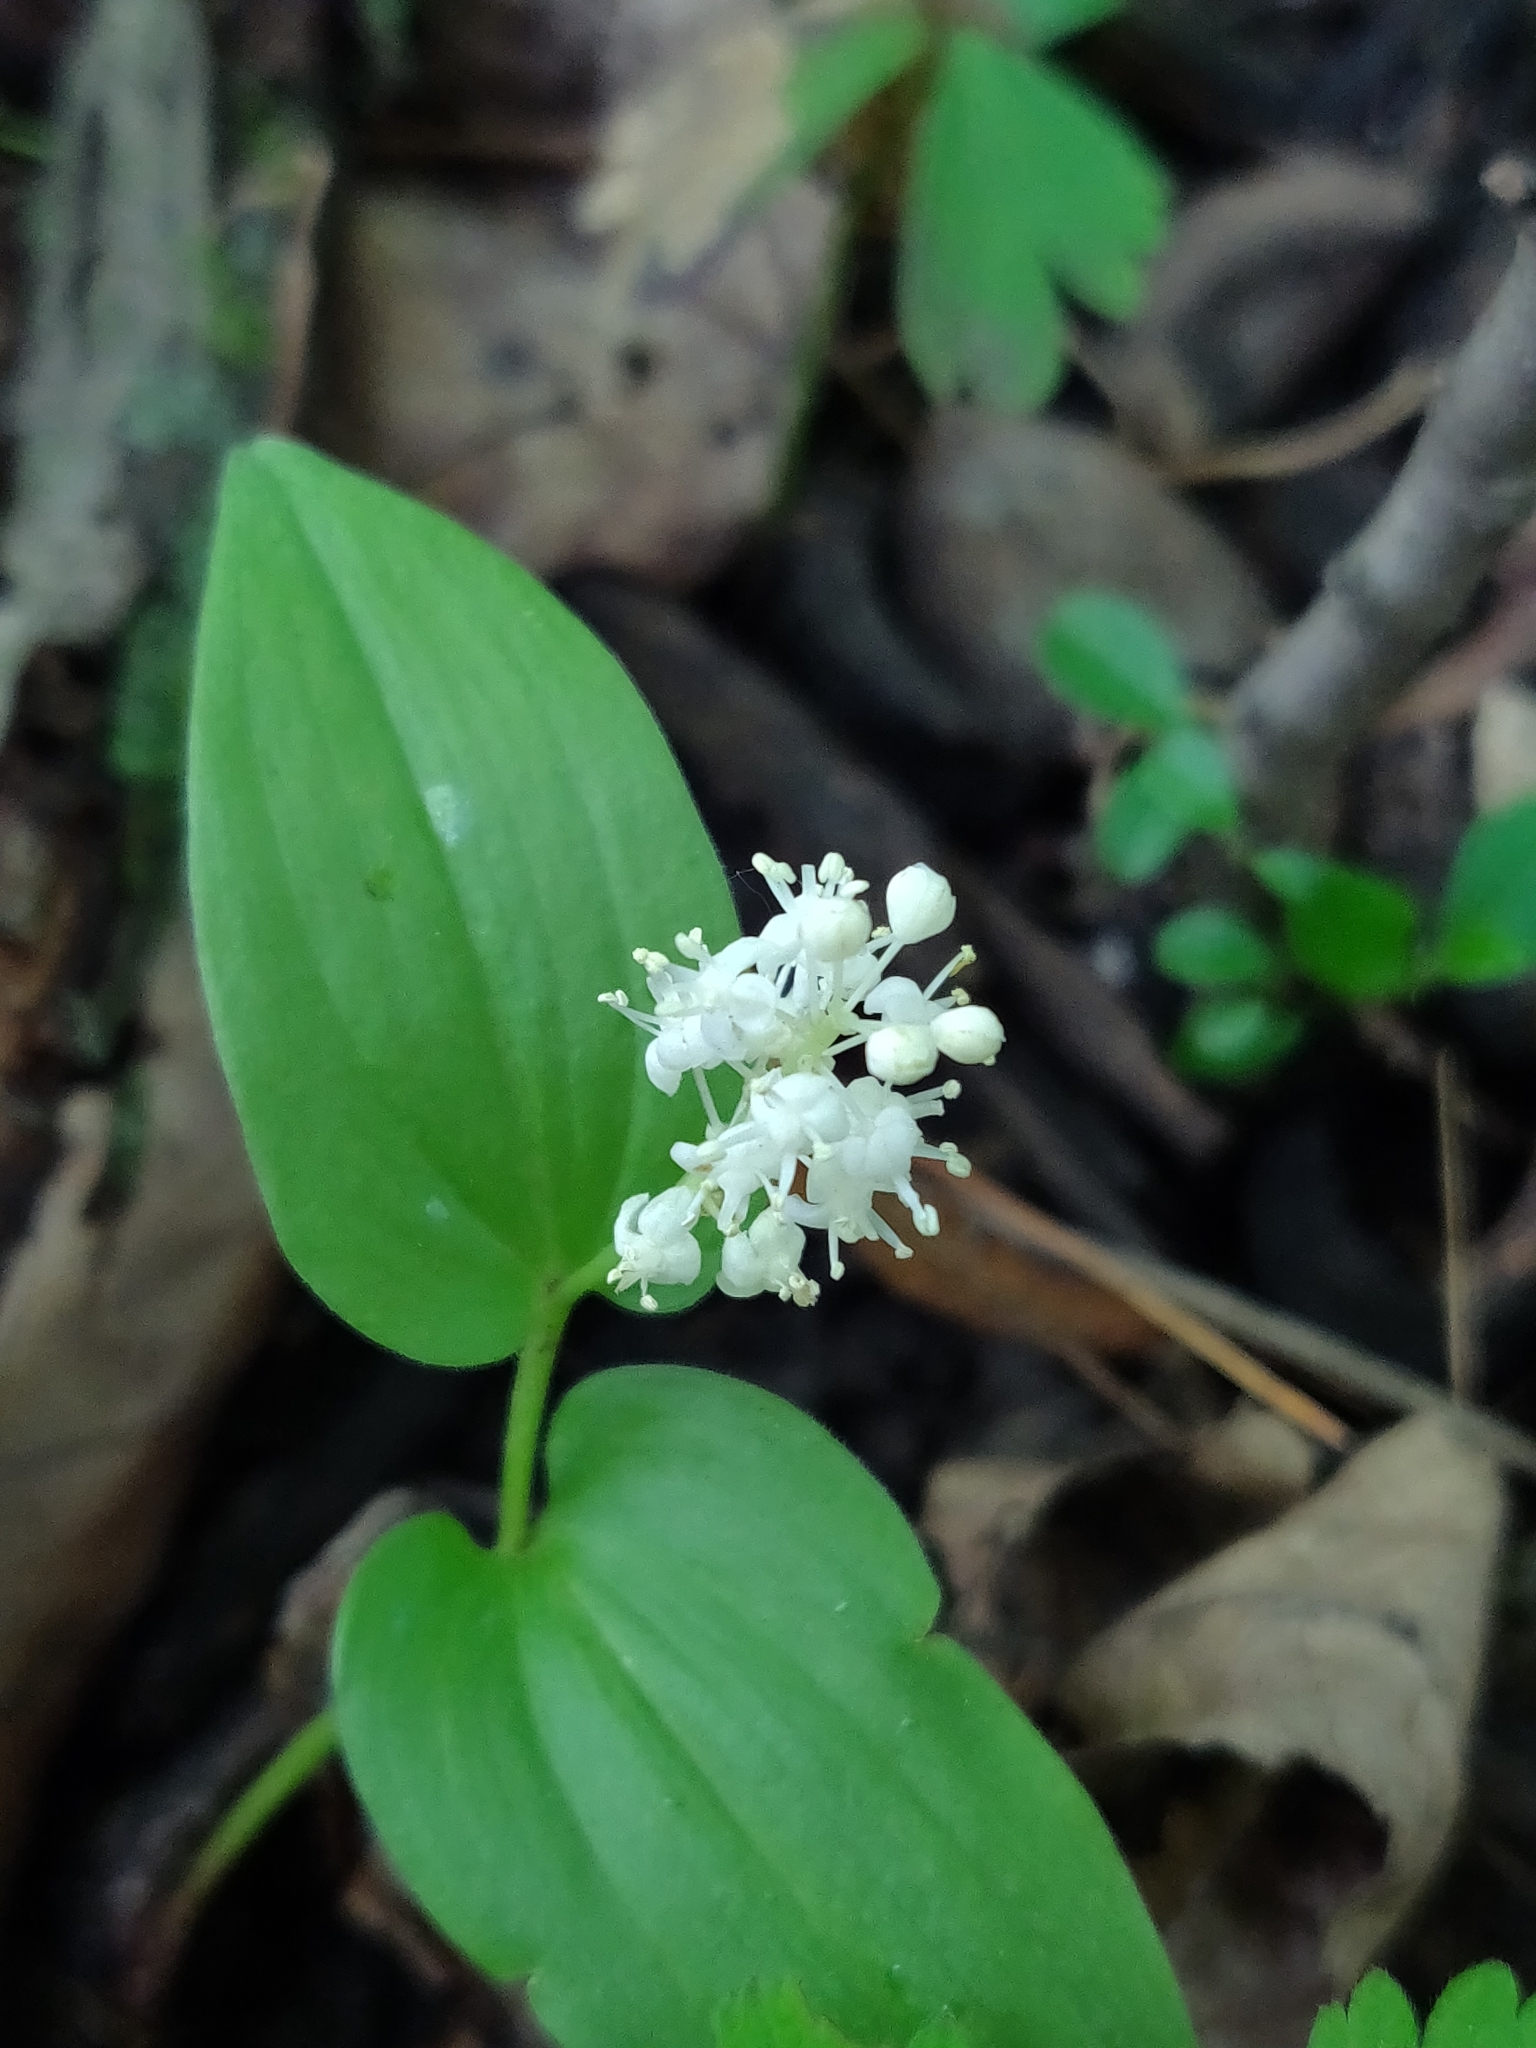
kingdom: Plantae
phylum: Tracheophyta
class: Liliopsida
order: Asparagales
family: Asparagaceae
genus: Maianthemum
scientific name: Maianthemum canadense
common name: False lily-of-the-valley
